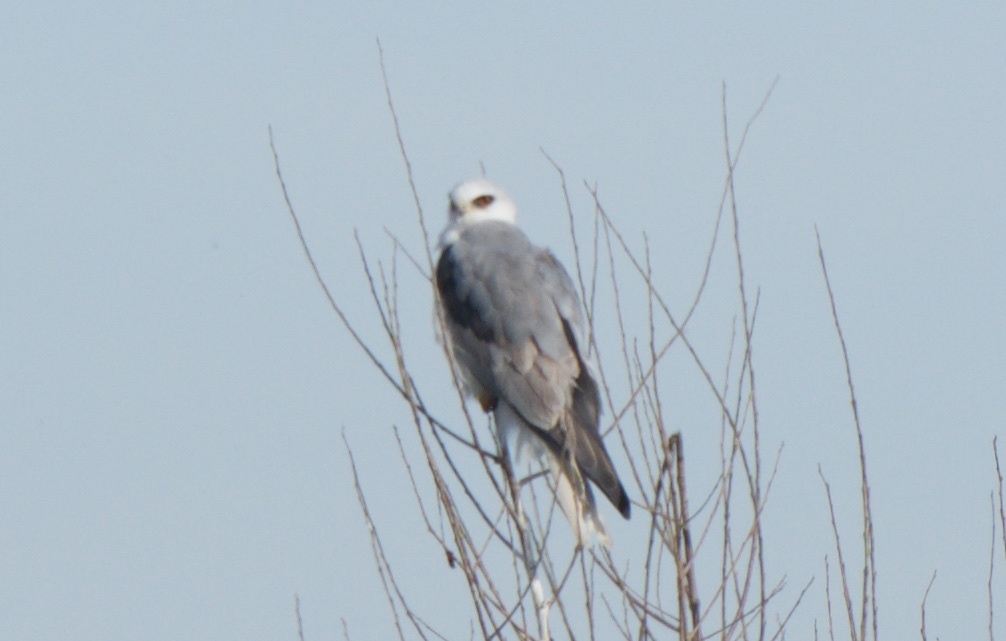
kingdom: Animalia
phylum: Chordata
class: Aves
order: Accipitriformes
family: Accipitridae
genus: Elanus
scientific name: Elanus leucurus
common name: White-tailed kite
